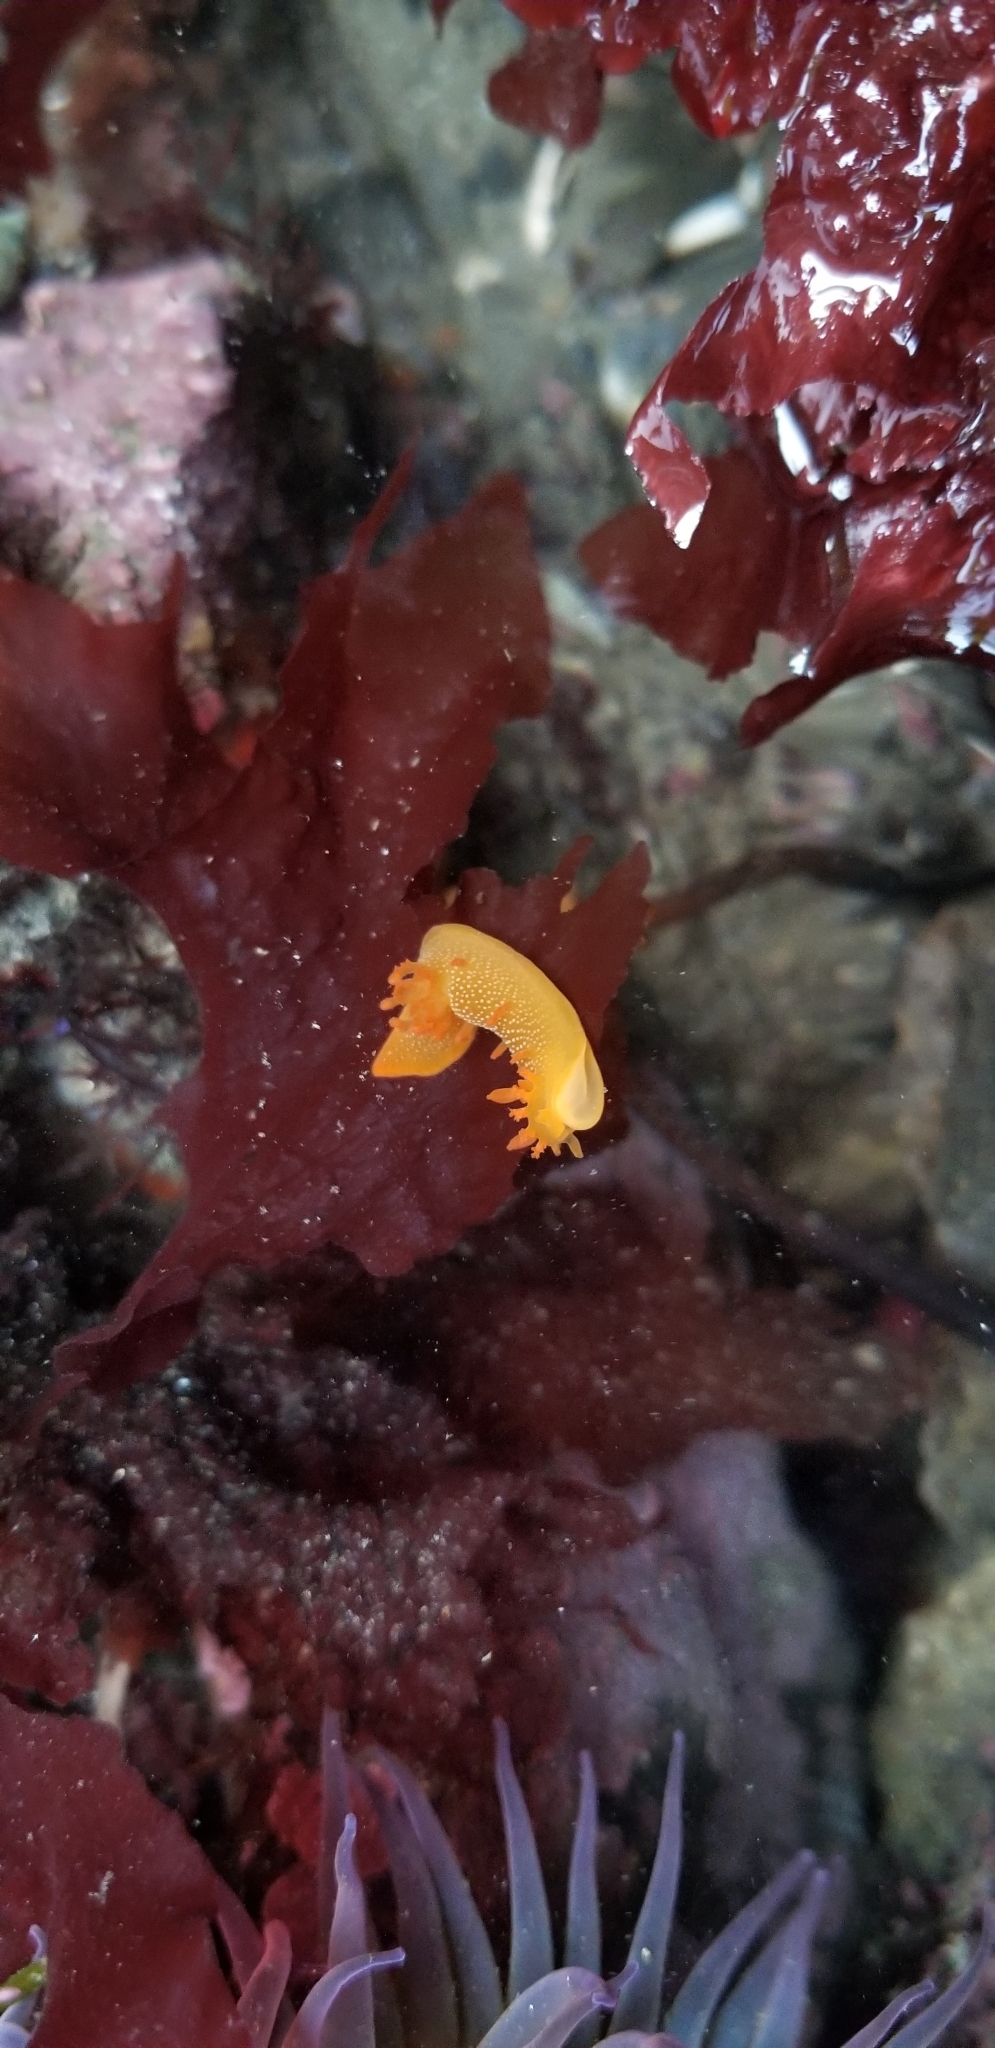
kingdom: Animalia
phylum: Mollusca
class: Gastropoda
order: Nudibranchia
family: Polyceridae
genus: Triopha
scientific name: Triopha maculata
